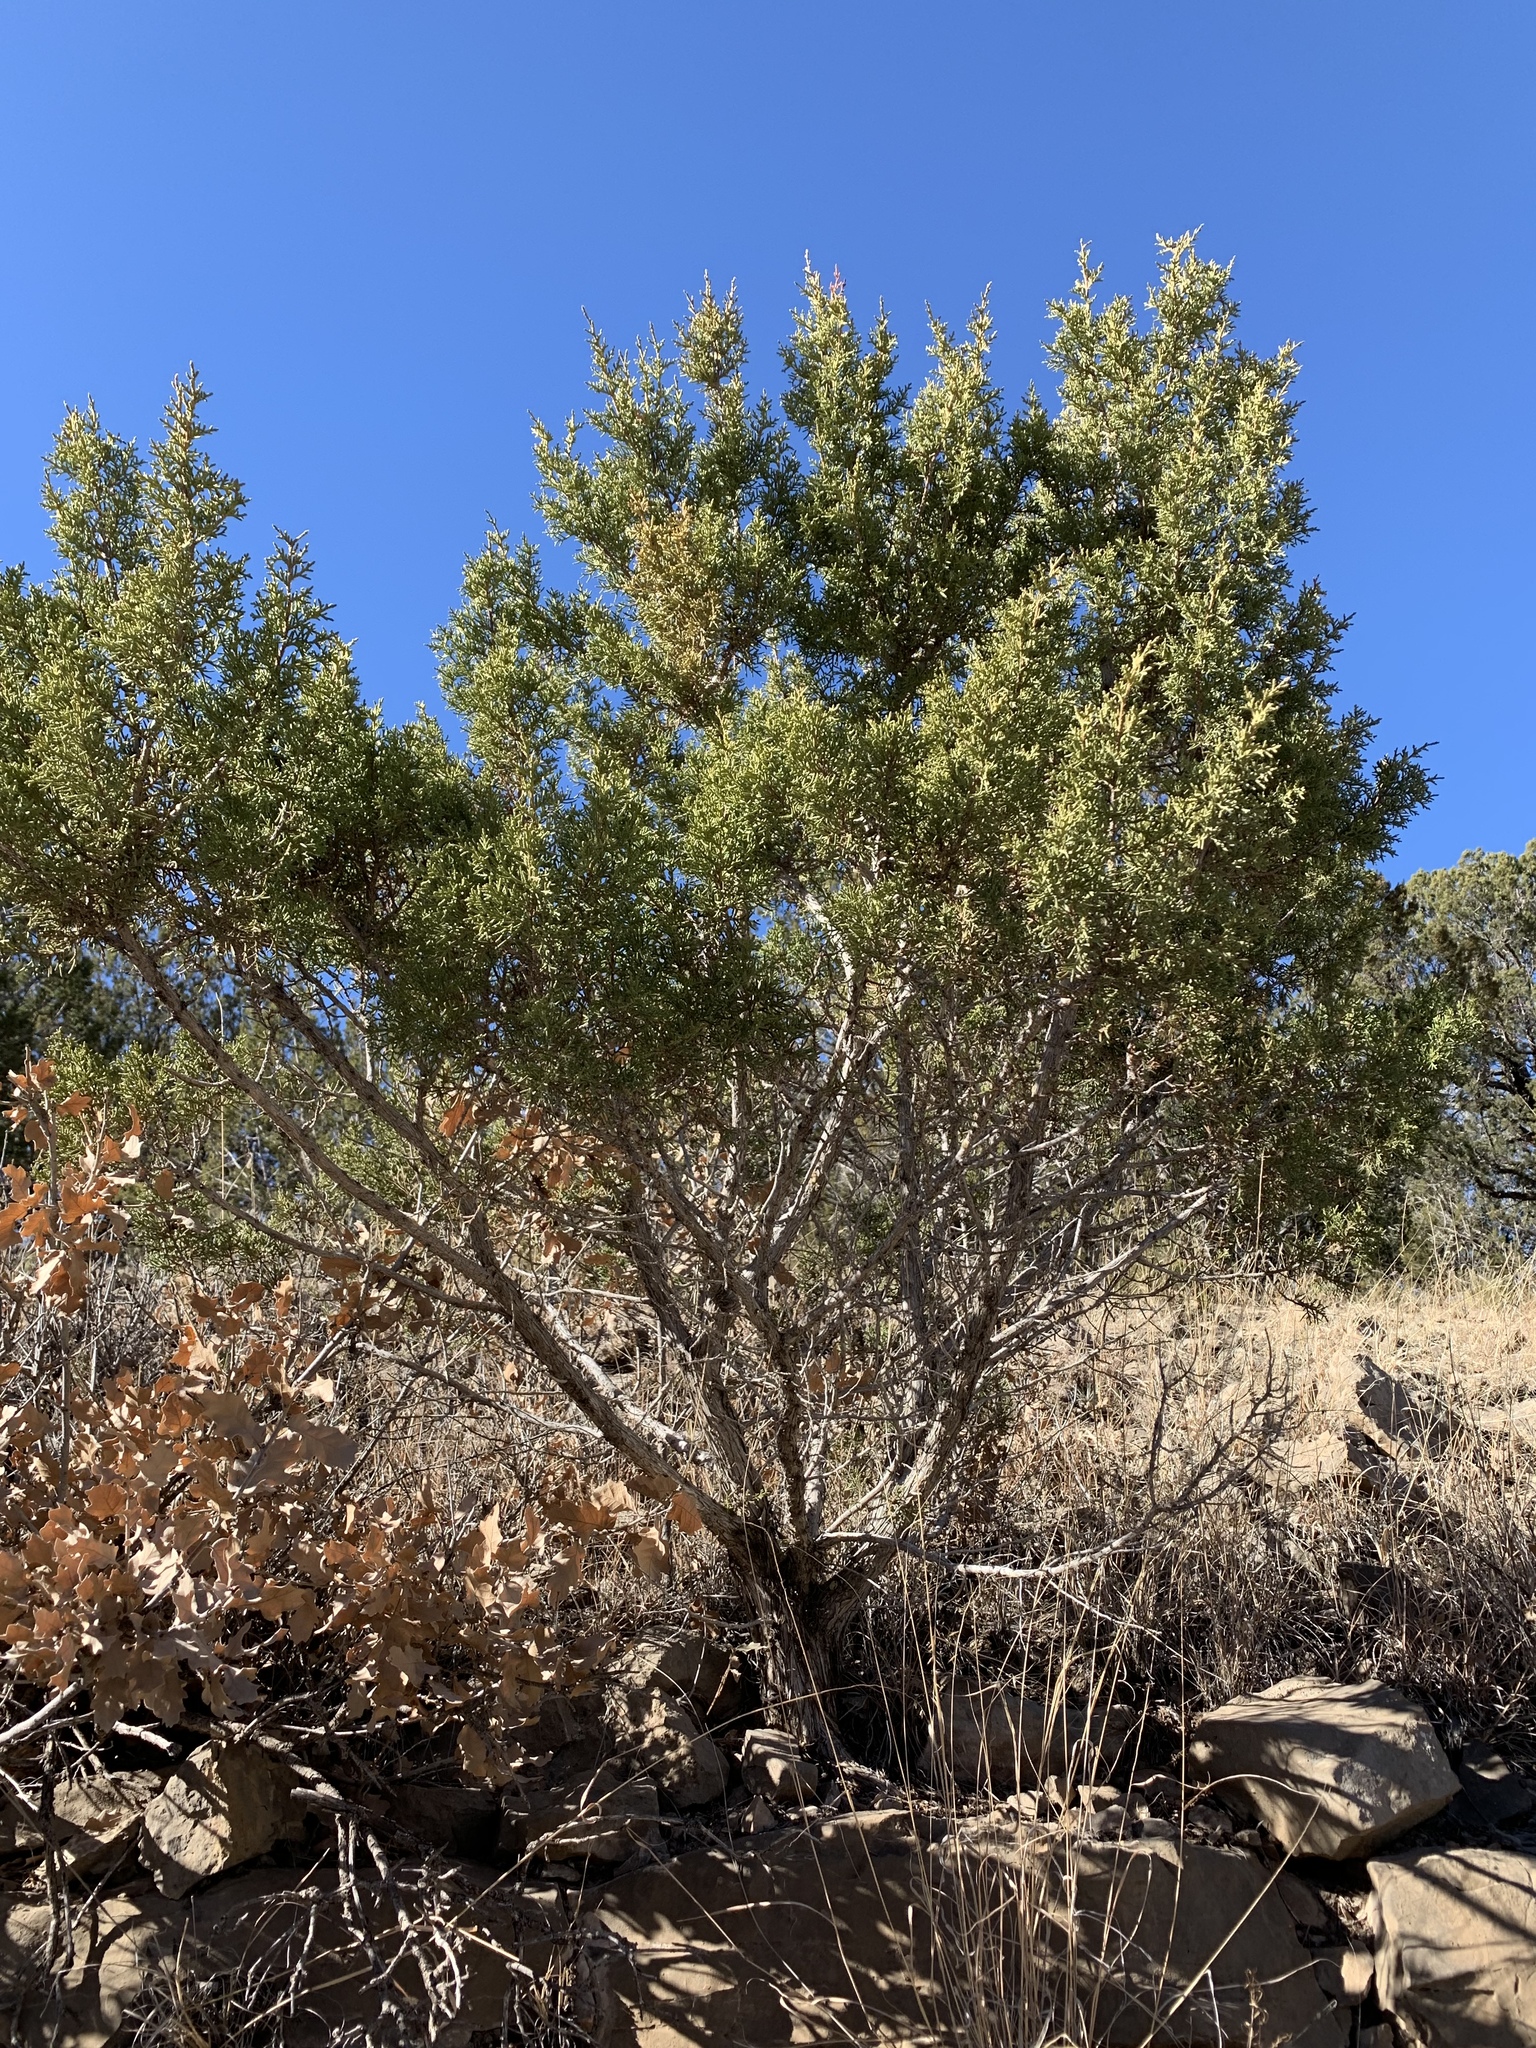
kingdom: Plantae
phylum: Tracheophyta
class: Pinopsida
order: Pinales
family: Cupressaceae
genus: Juniperus
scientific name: Juniperus monosperma
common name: One-seed juniper
